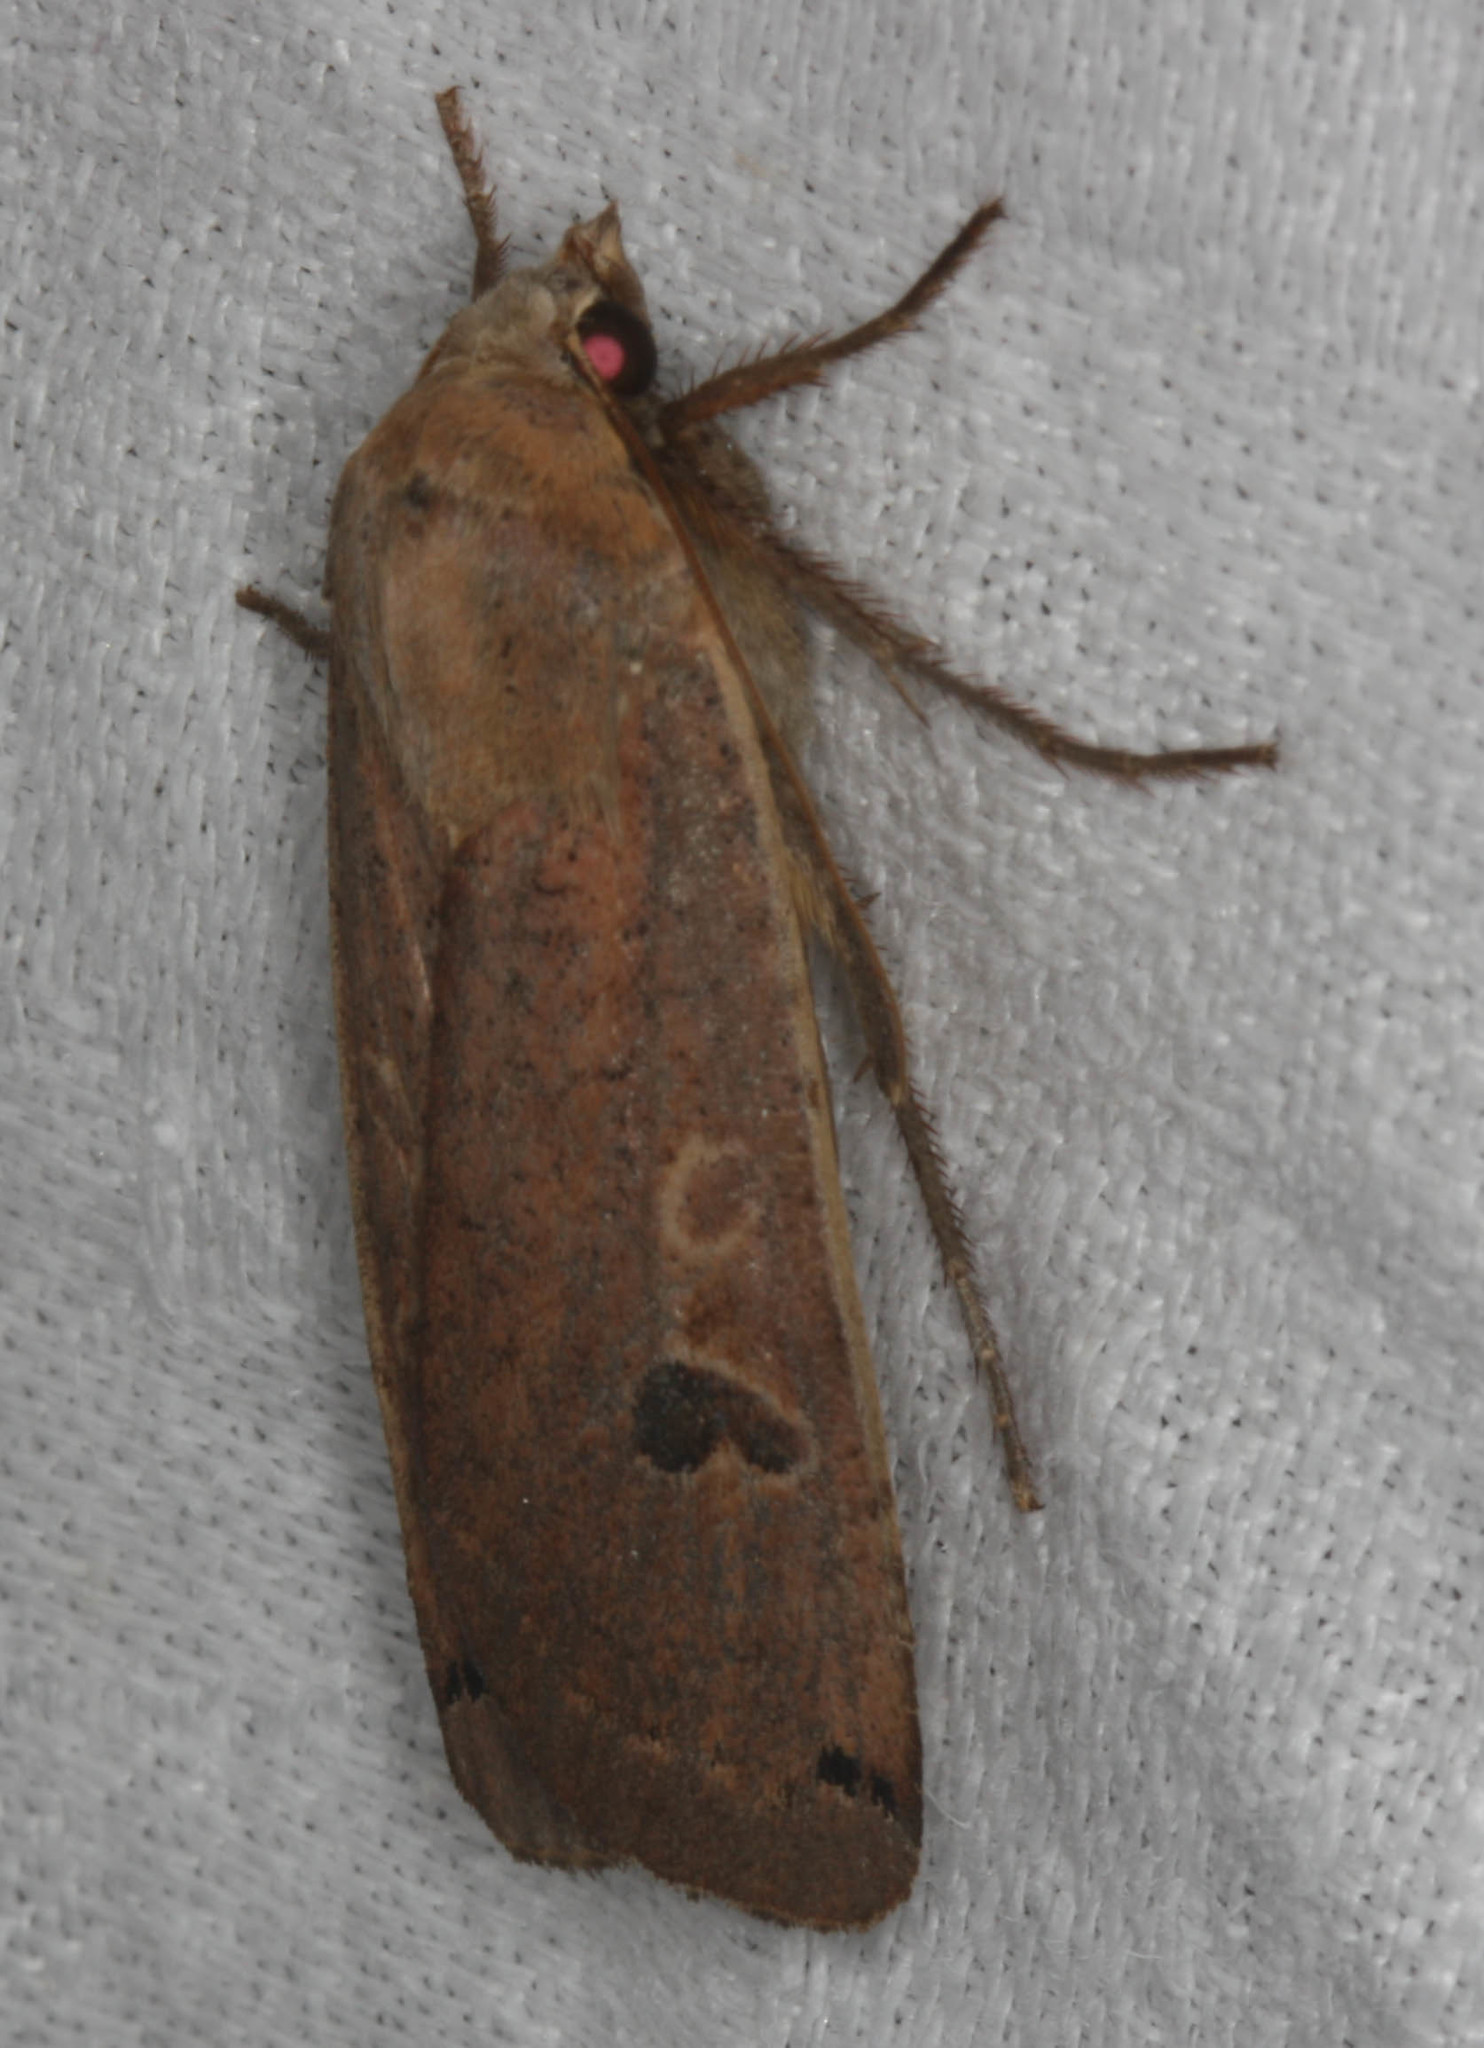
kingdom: Animalia
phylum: Arthropoda
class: Insecta
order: Lepidoptera
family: Noctuidae
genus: Noctua
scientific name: Noctua pronuba
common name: Large yellow underwing
